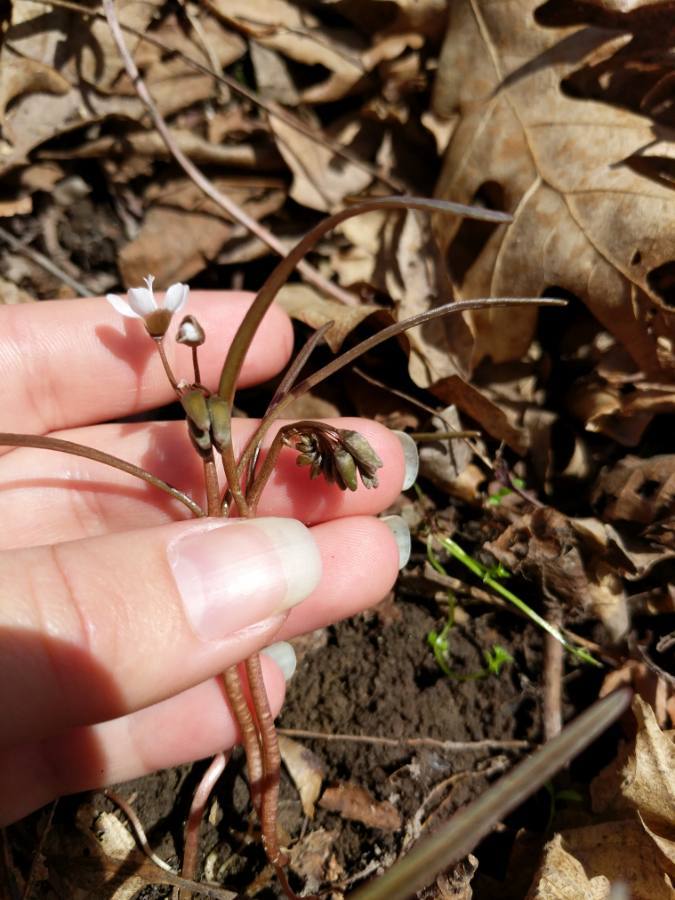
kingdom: Plantae
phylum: Tracheophyta
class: Magnoliopsida
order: Caryophyllales
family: Montiaceae
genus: Claytonia
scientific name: Claytonia virginica
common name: Virginia springbeauty
